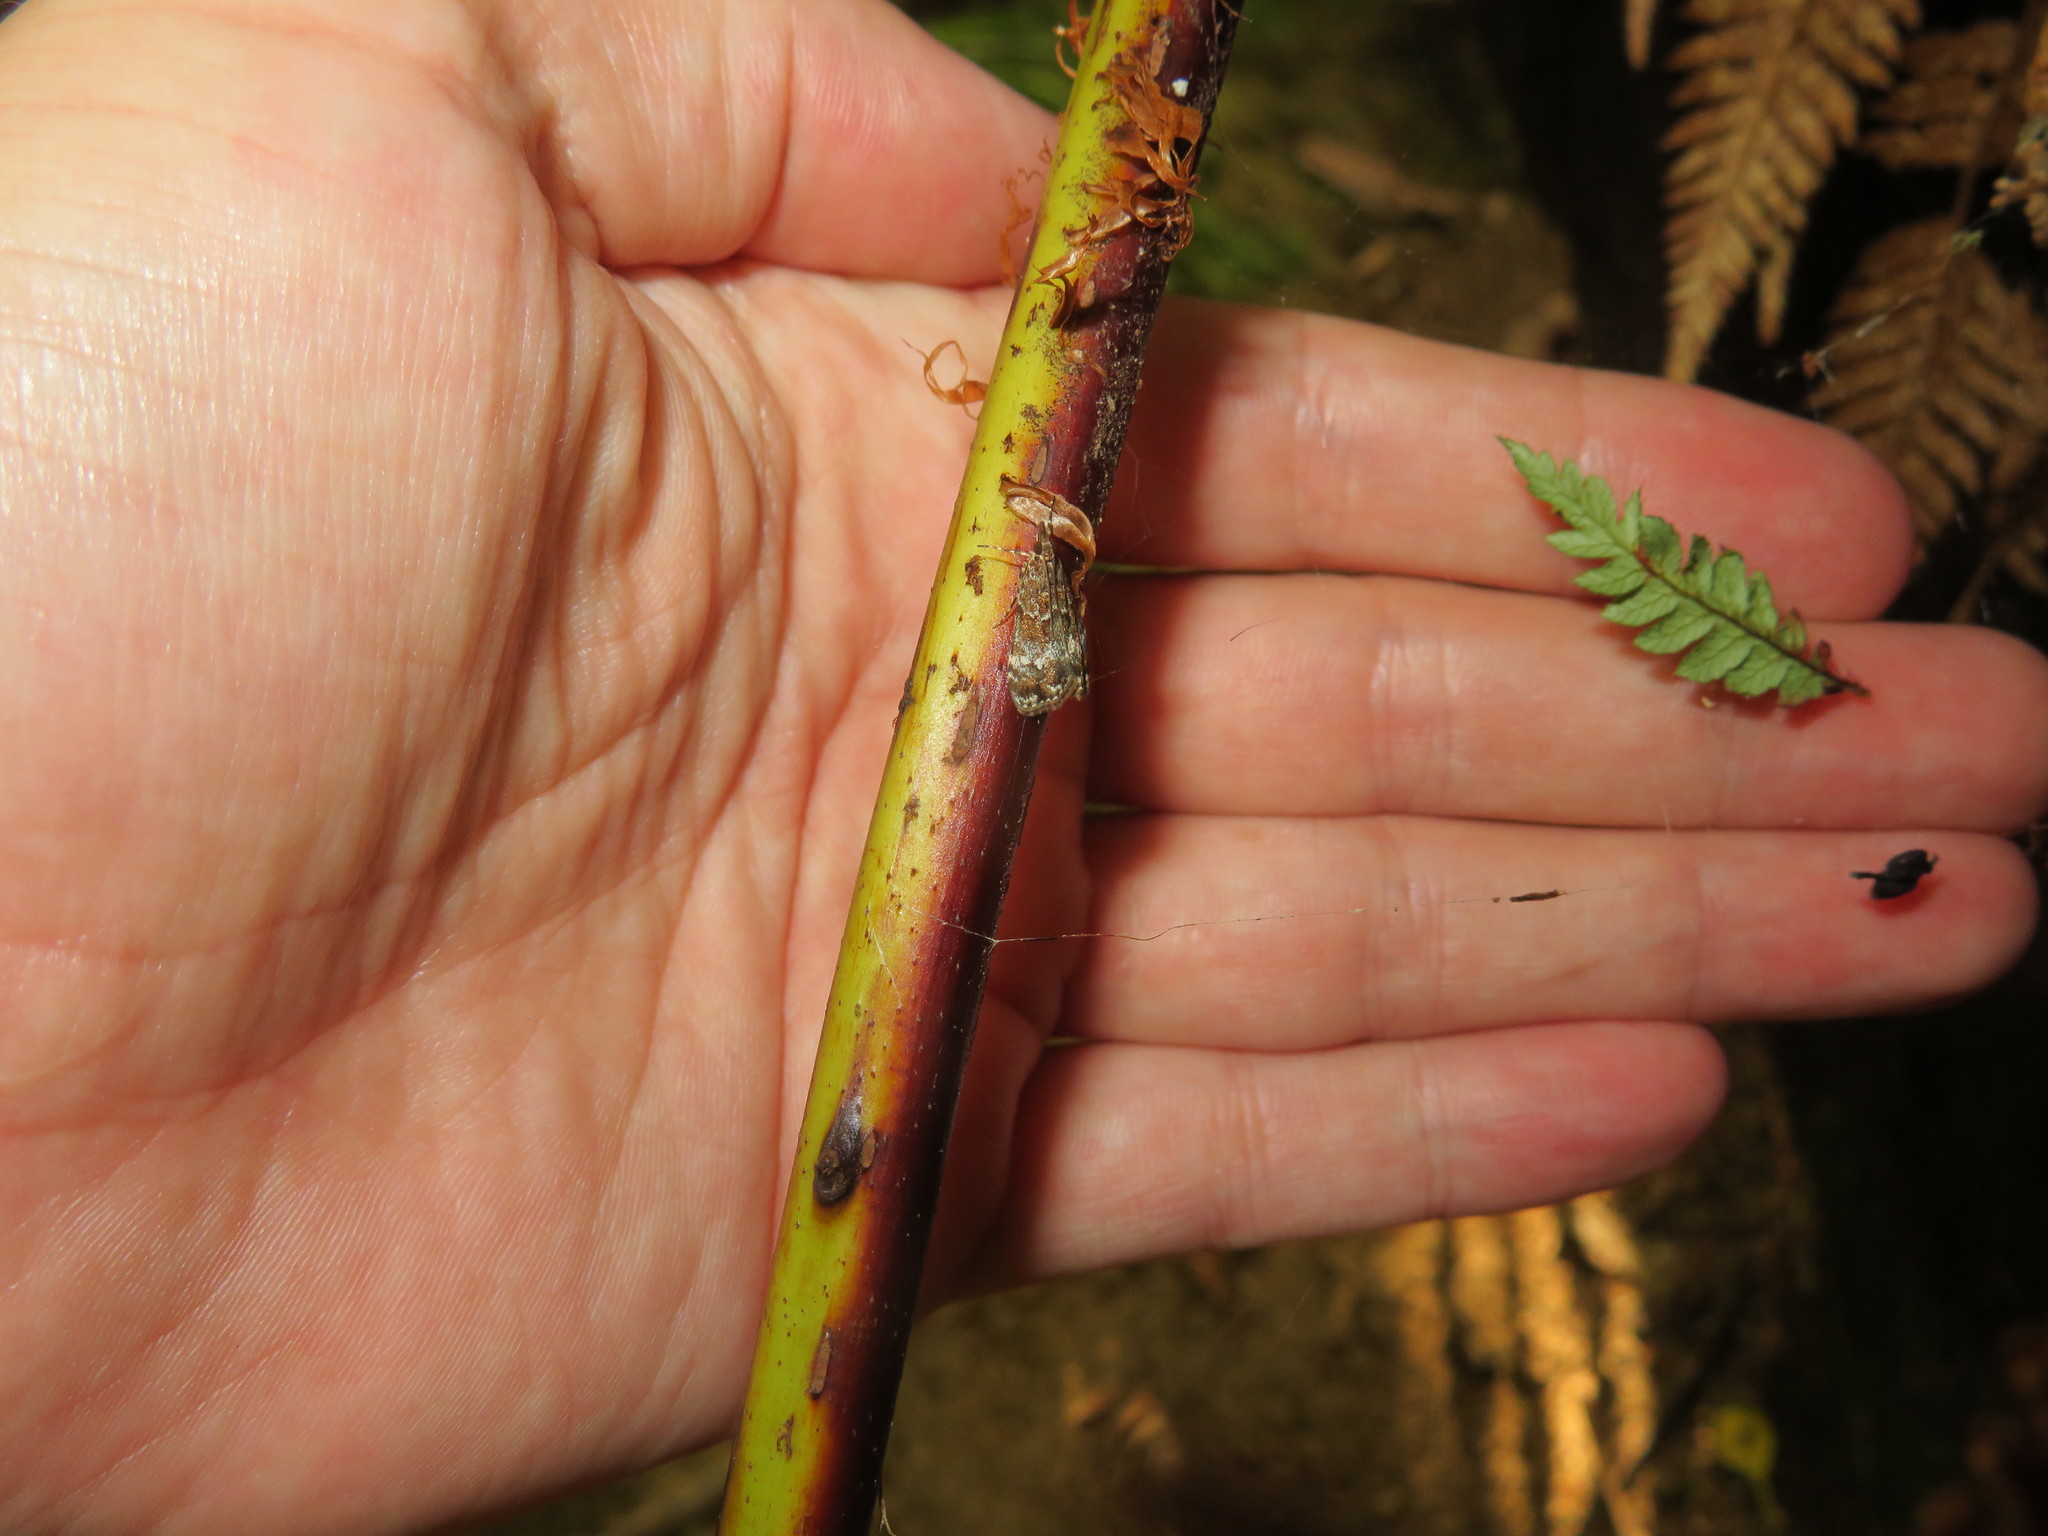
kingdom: Animalia
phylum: Arthropoda
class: Insecta
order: Lepidoptera
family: Crambidae
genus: Eudonia
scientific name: Eudonia minualis
